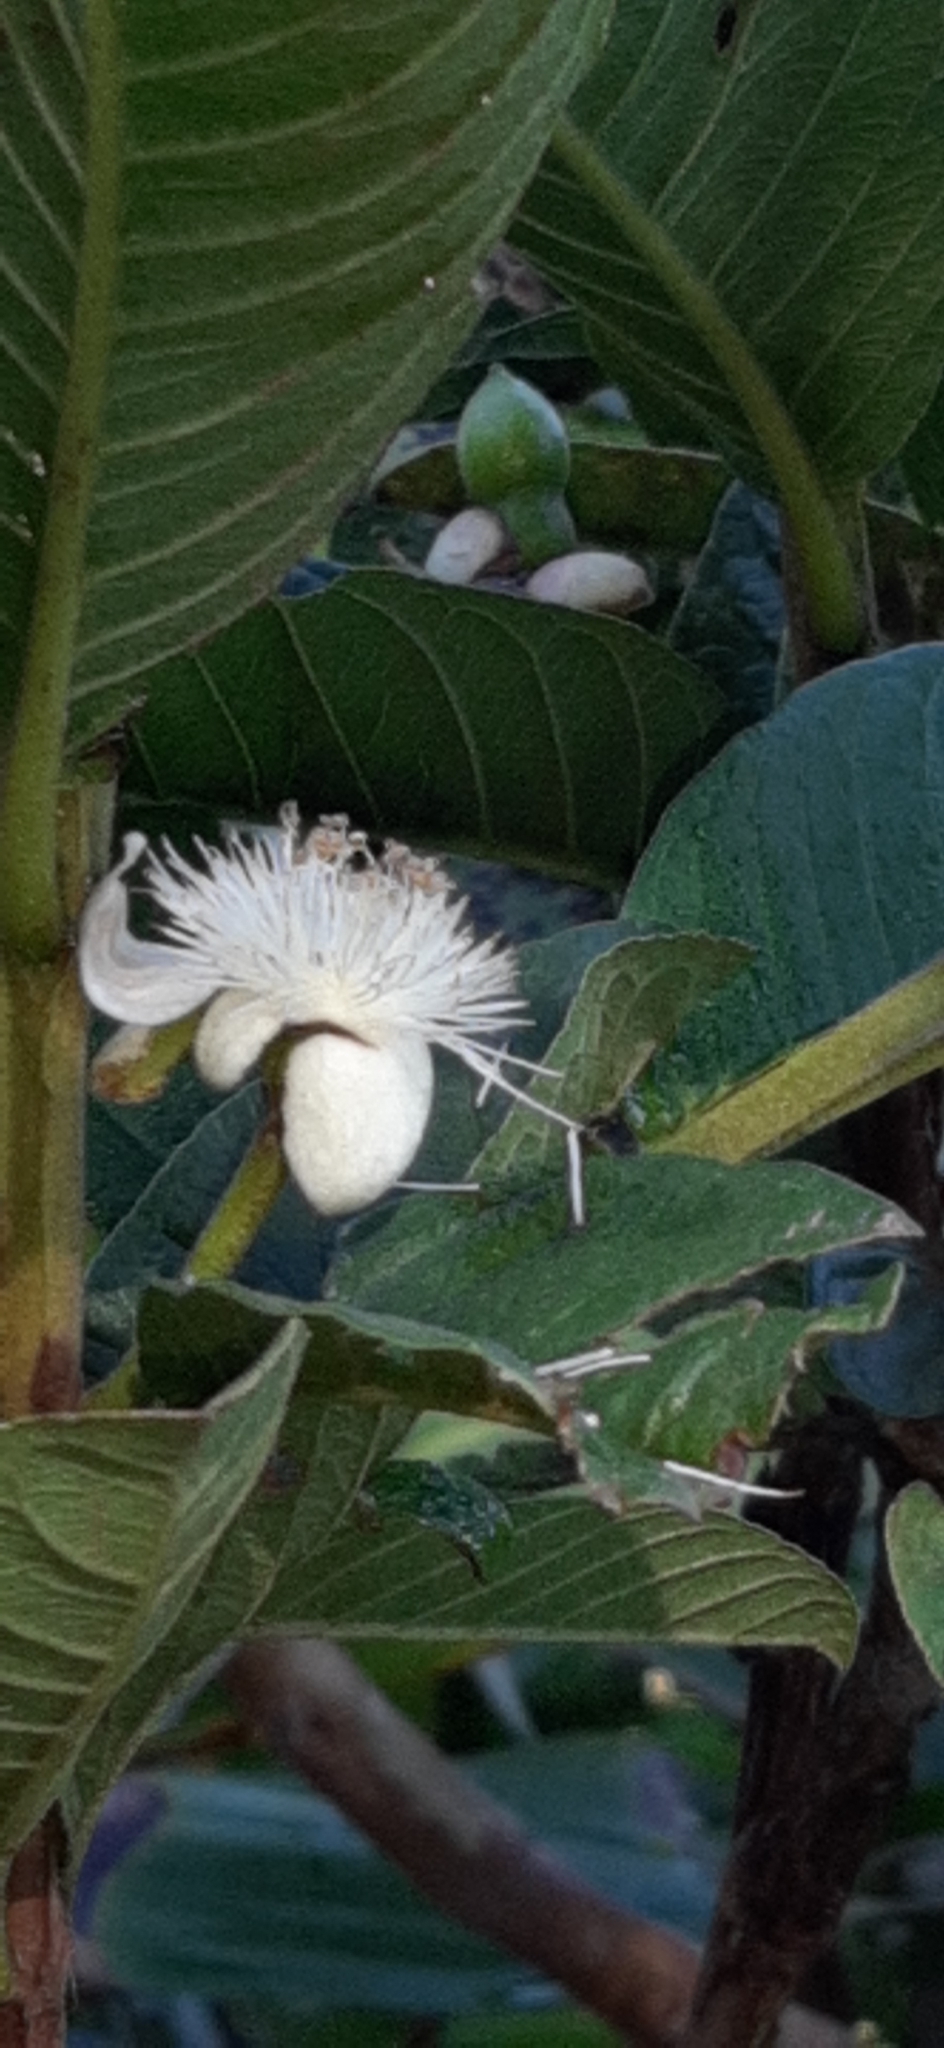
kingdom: Plantae
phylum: Tracheophyta
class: Magnoliopsida
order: Myrtales
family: Myrtaceae
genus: Psidium
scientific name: Psidium guajava
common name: Guava
